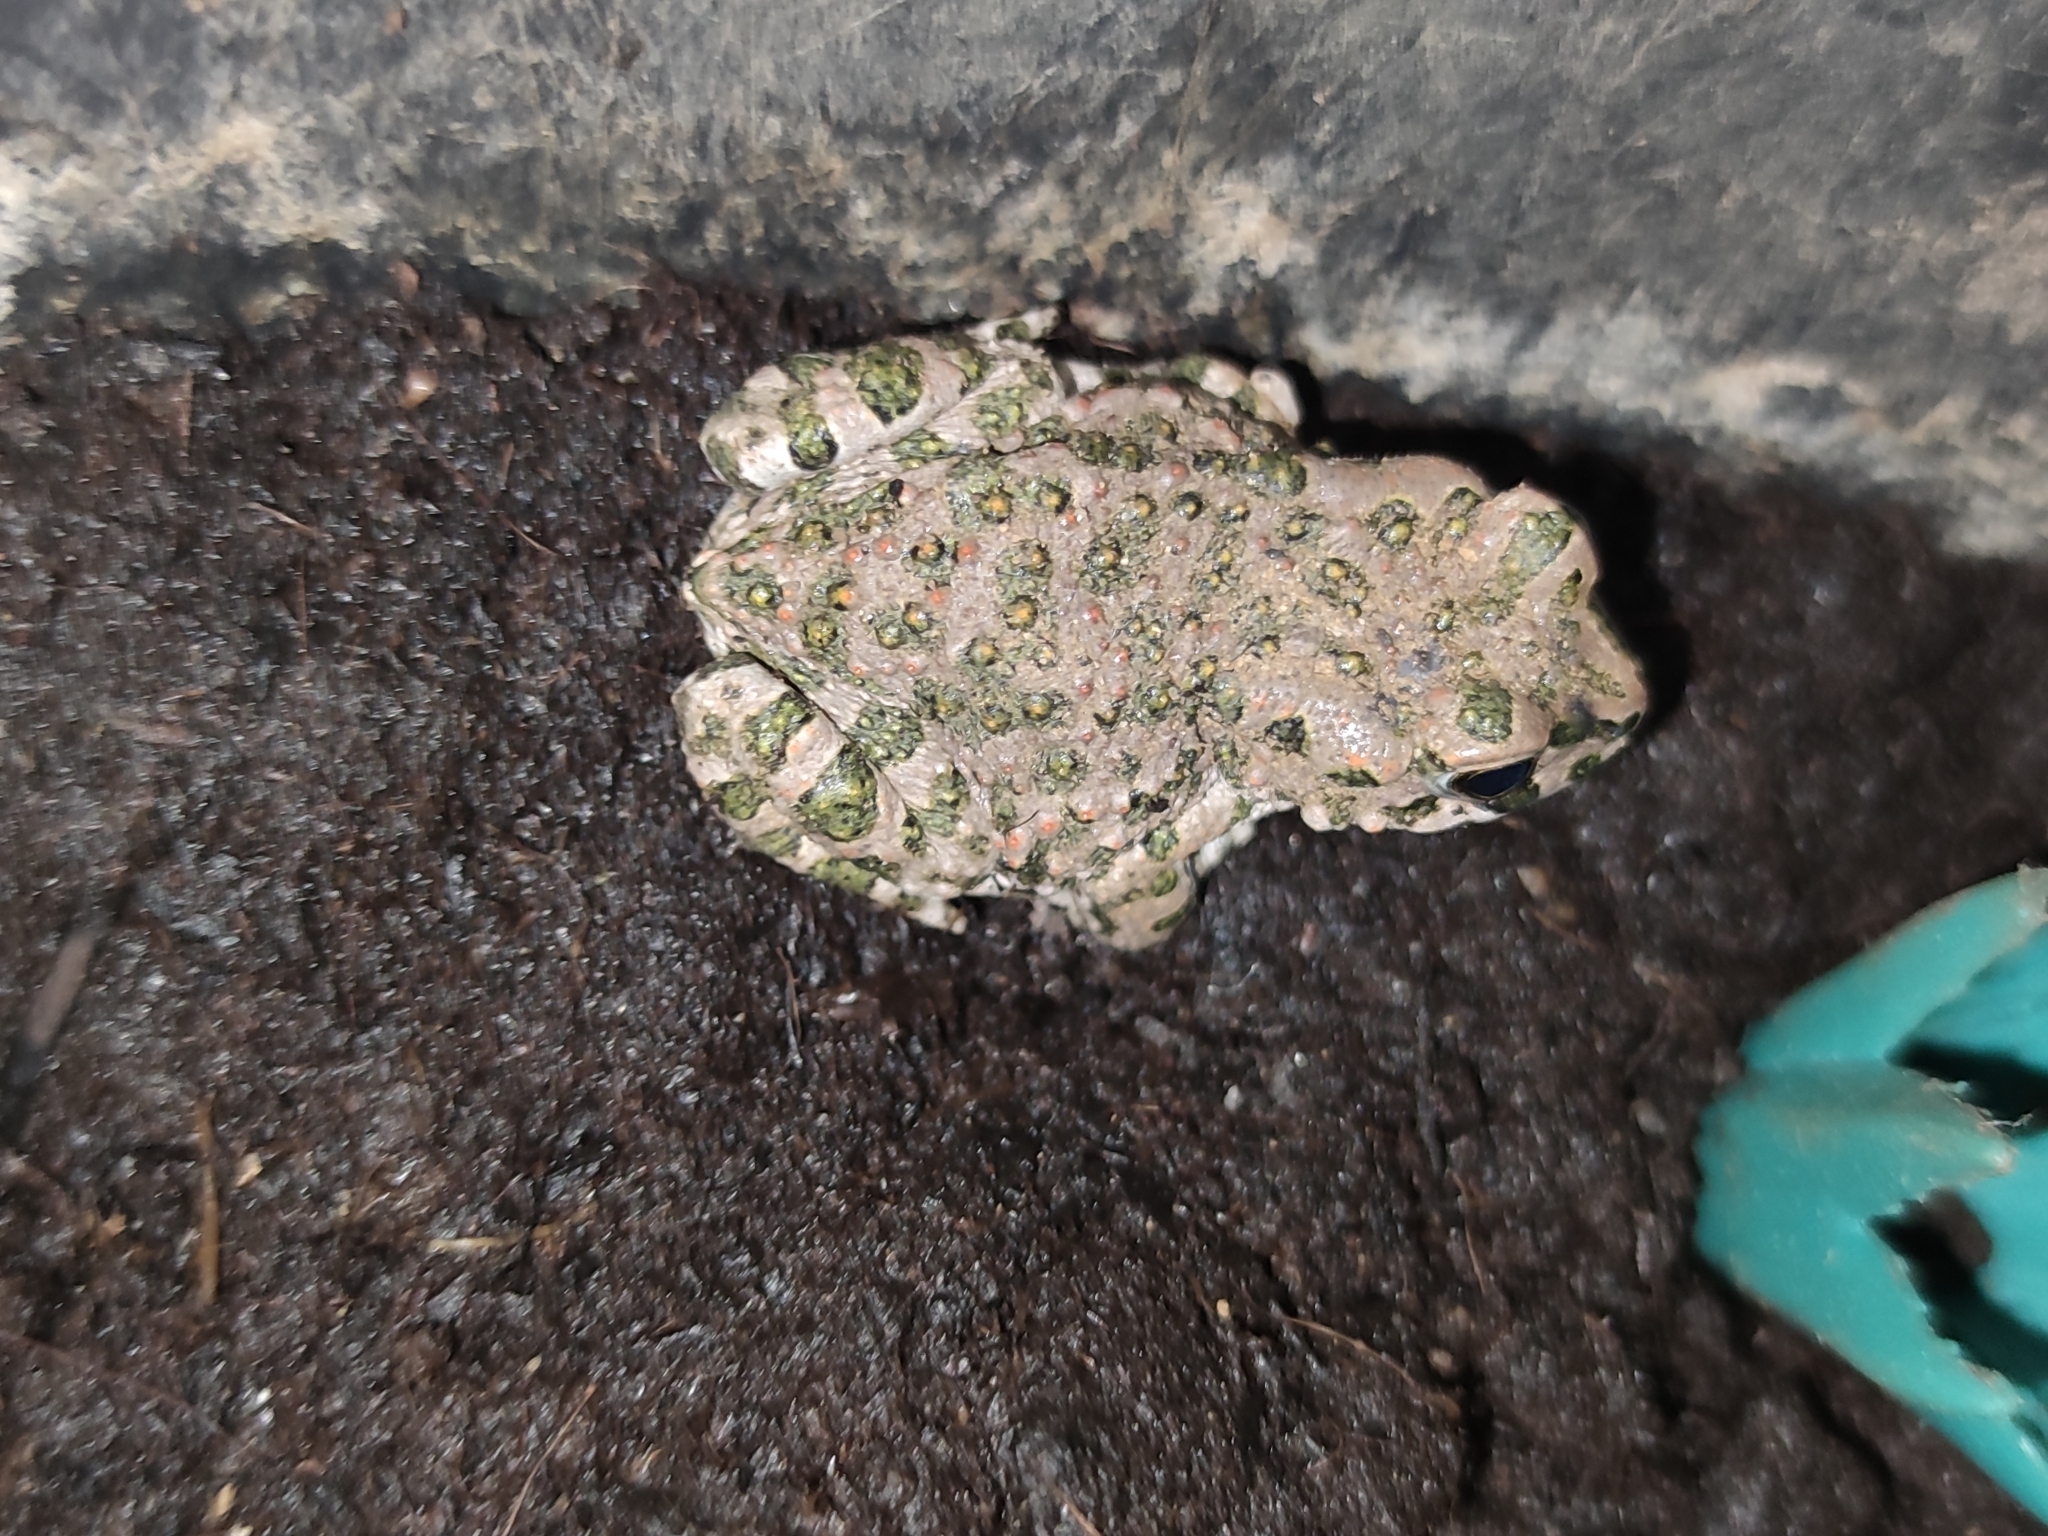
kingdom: Animalia
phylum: Chordata
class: Amphibia
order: Anura
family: Bufonidae
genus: Bufotes
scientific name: Bufotes viridis
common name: European green toad
